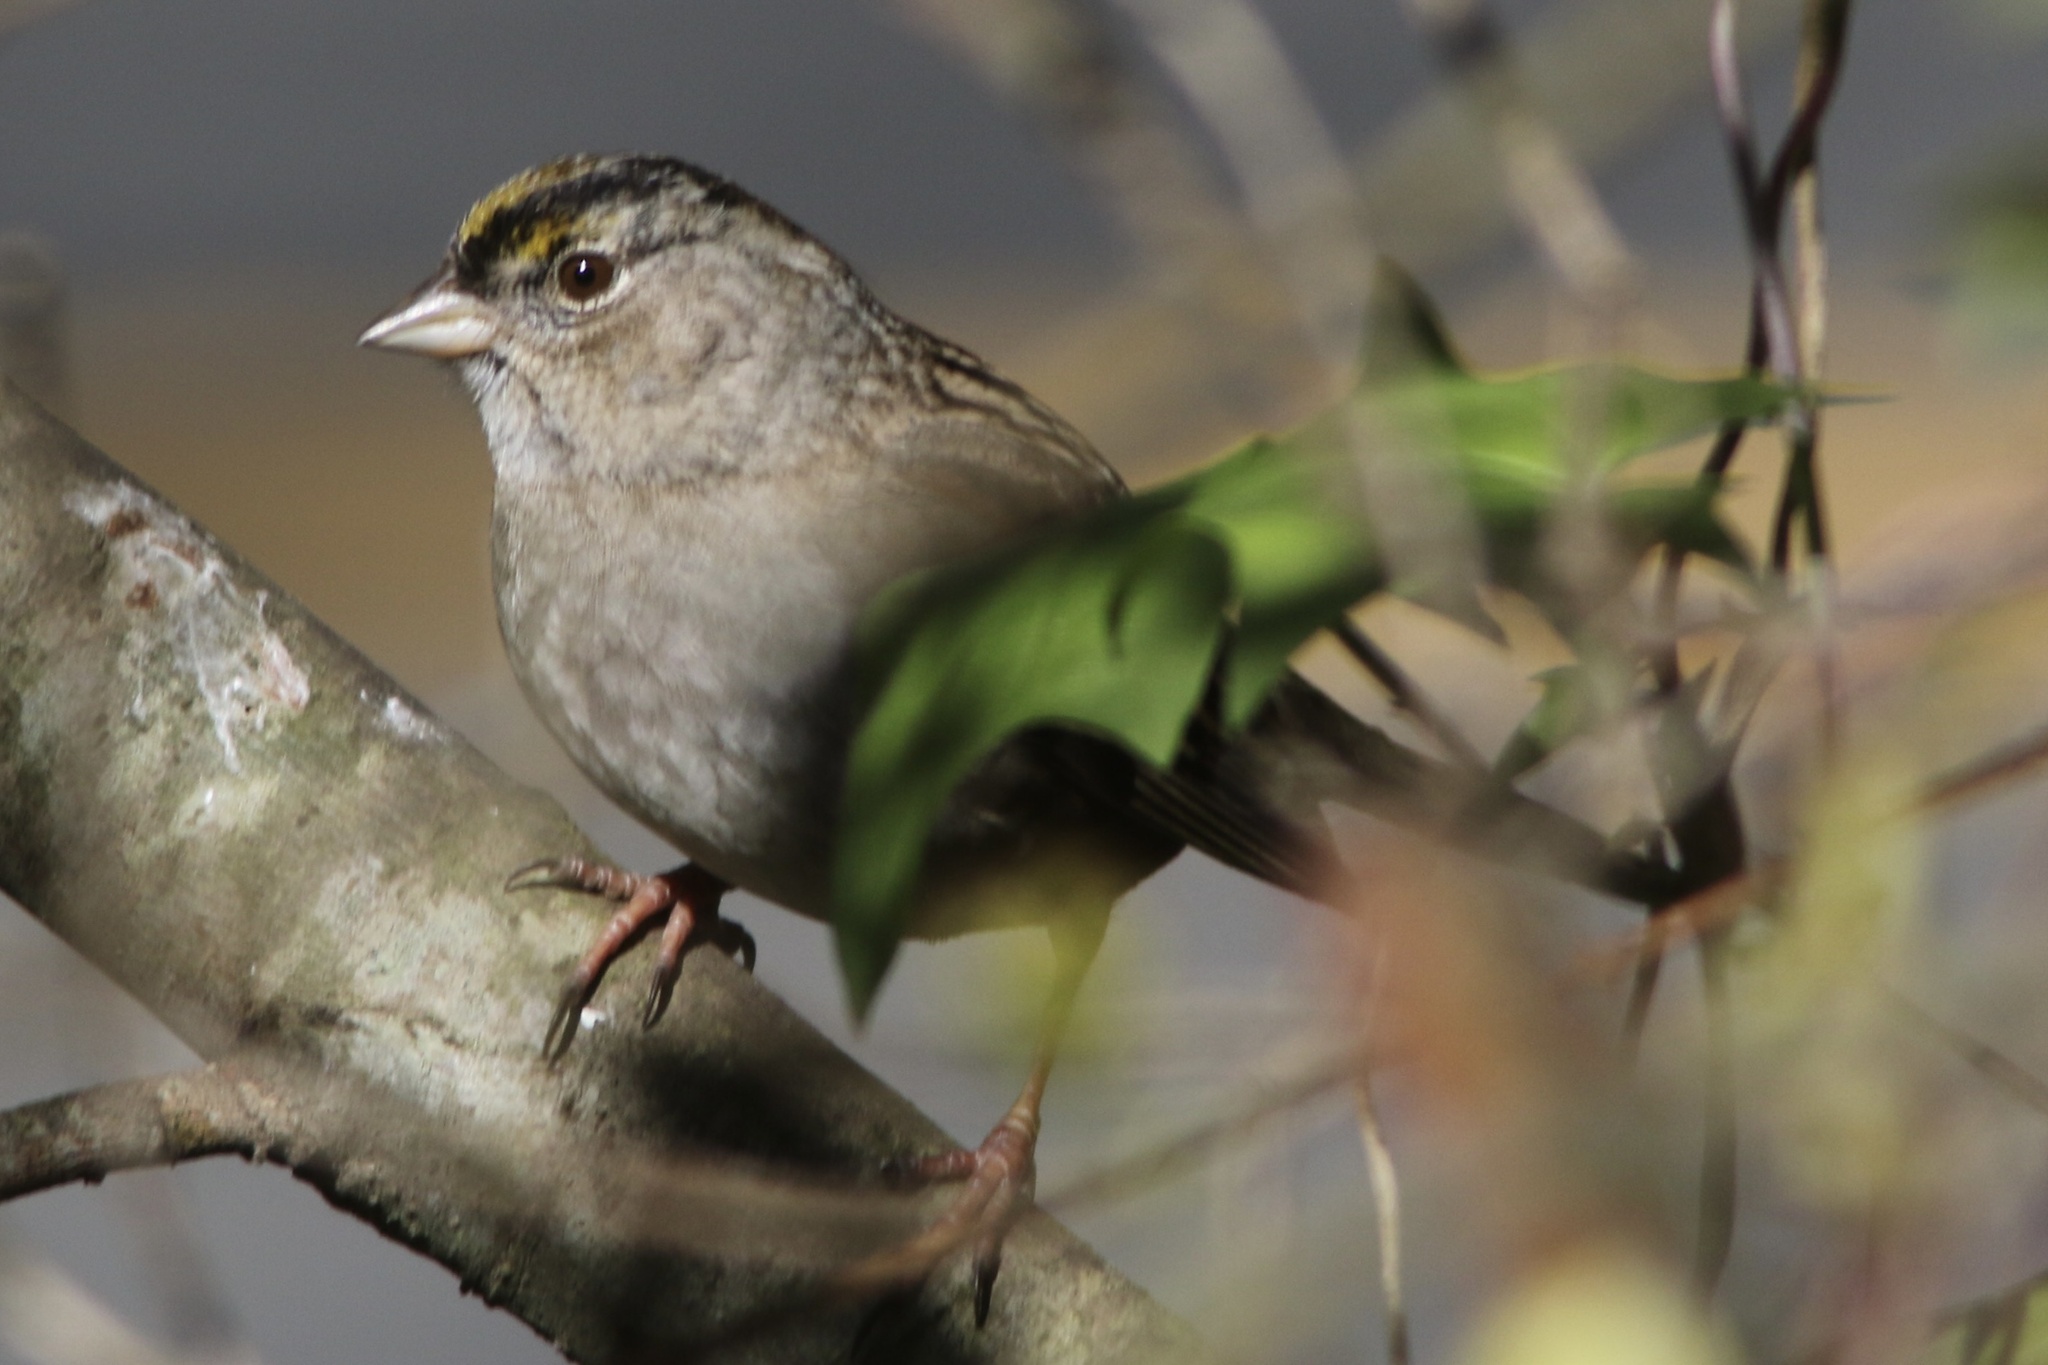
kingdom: Animalia
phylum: Chordata
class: Aves
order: Passeriformes
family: Passerellidae
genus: Zonotrichia
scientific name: Zonotrichia atricapilla
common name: Golden-crowned sparrow
